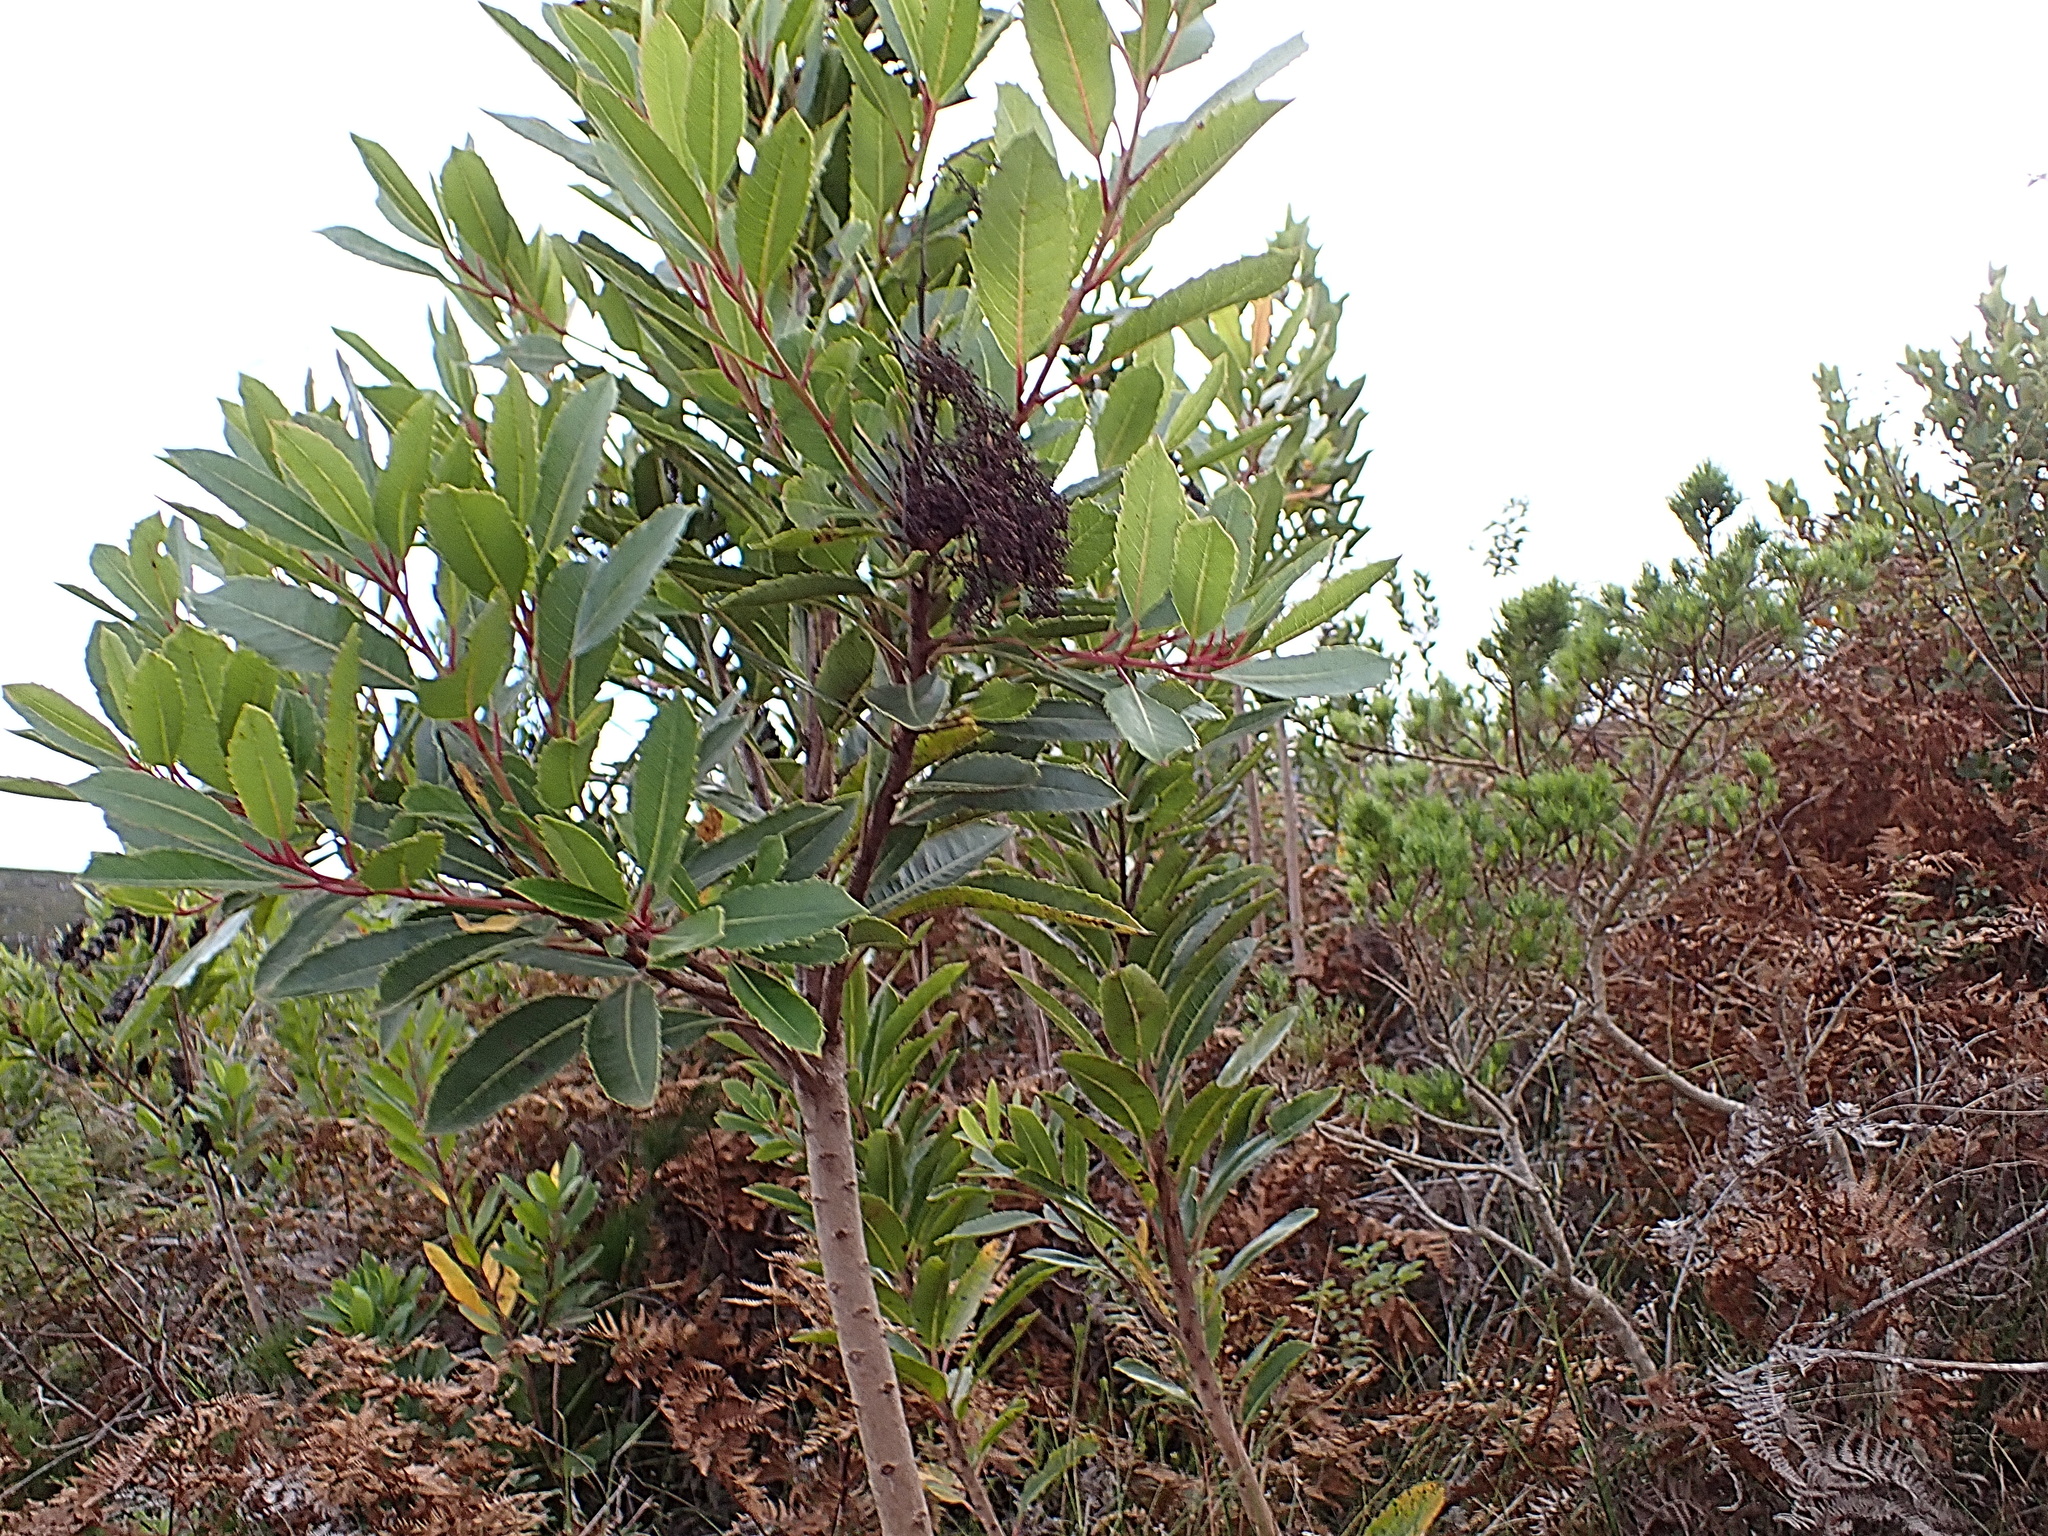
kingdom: Plantae
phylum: Tracheophyta
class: Magnoliopsida
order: Sapindales
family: Anacardiaceae
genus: Laurophyllus
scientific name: Laurophyllus capensis
